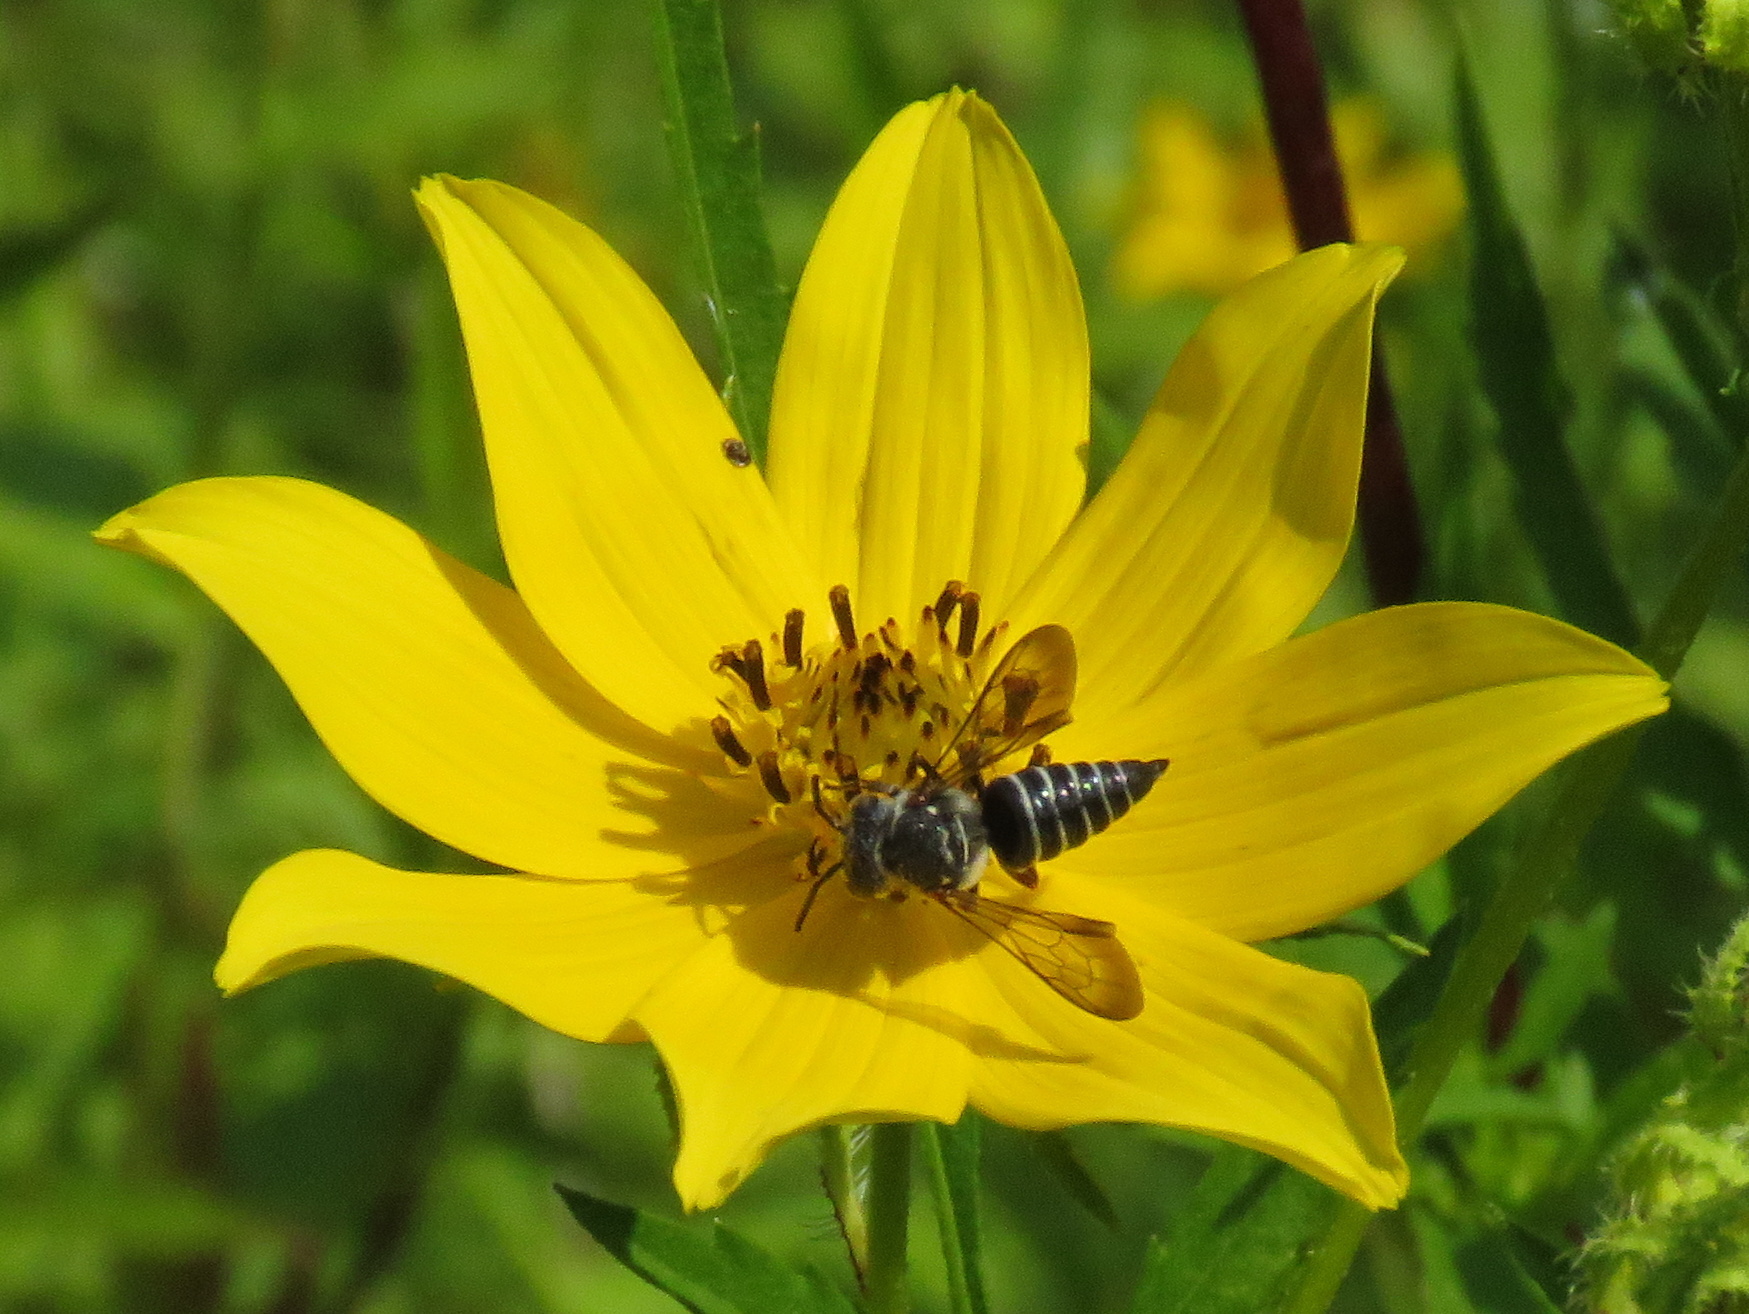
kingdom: Animalia
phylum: Arthropoda
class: Insecta
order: Hymenoptera
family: Megachilidae
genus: Coelioxys
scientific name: Coelioxys sayi
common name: Say's cuckoo leaf-cutter bee
